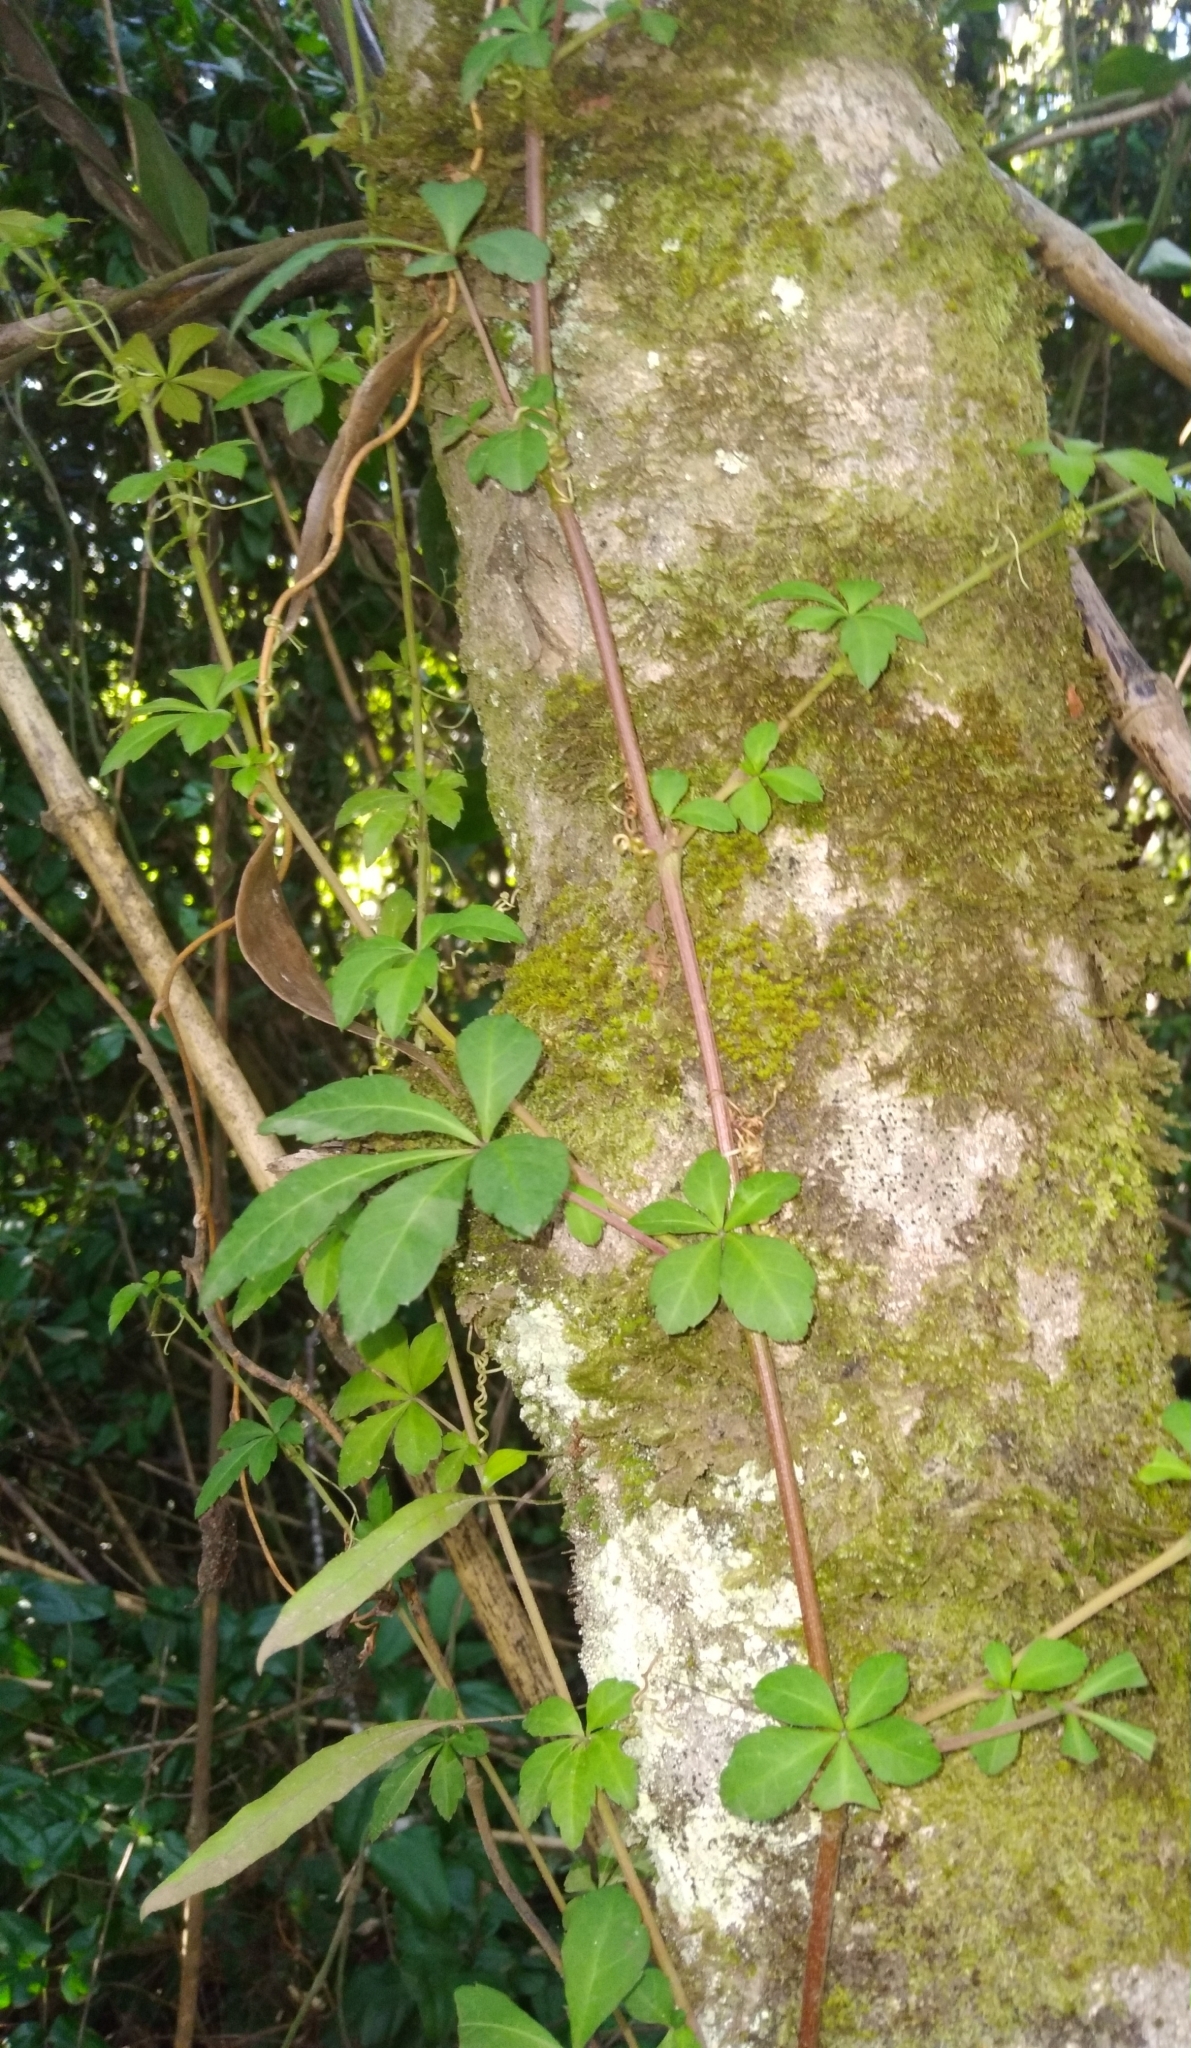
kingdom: Plantae
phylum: Tracheophyta
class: Magnoliopsida
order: Vitales
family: Vitaceae
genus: Clematicissus
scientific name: Clematicissus striata
